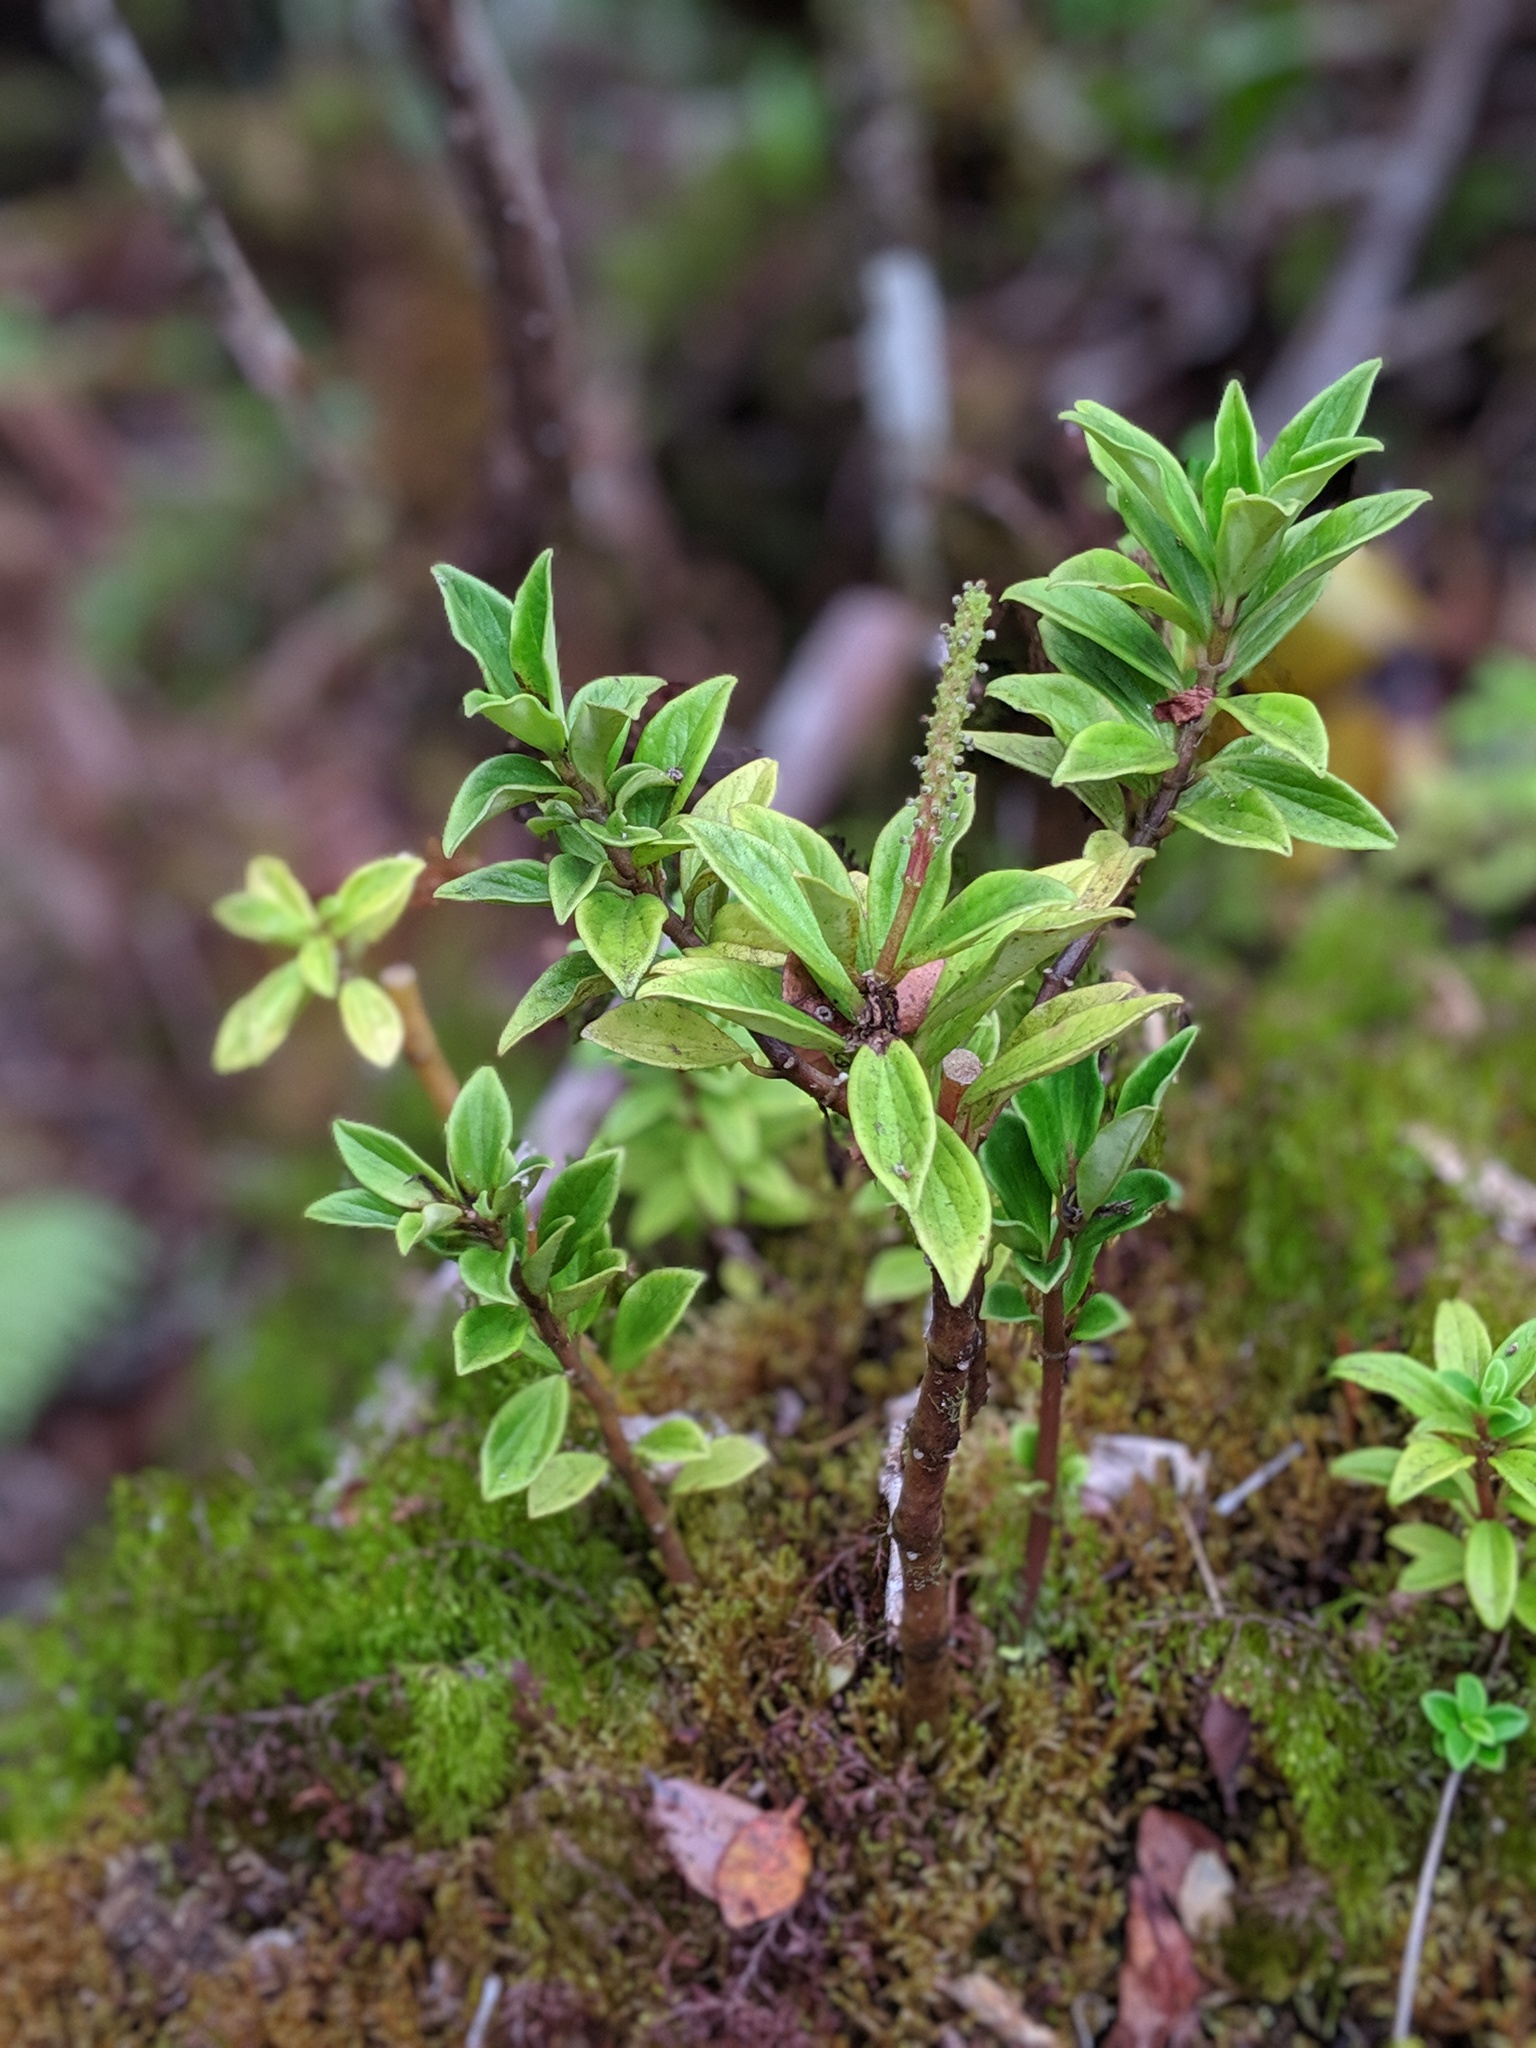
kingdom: Plantae
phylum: Tracheophyta
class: Magnoliopsida
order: Piperales
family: Piperaceae
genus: Peperomia
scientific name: Peperomia hesperomannii
